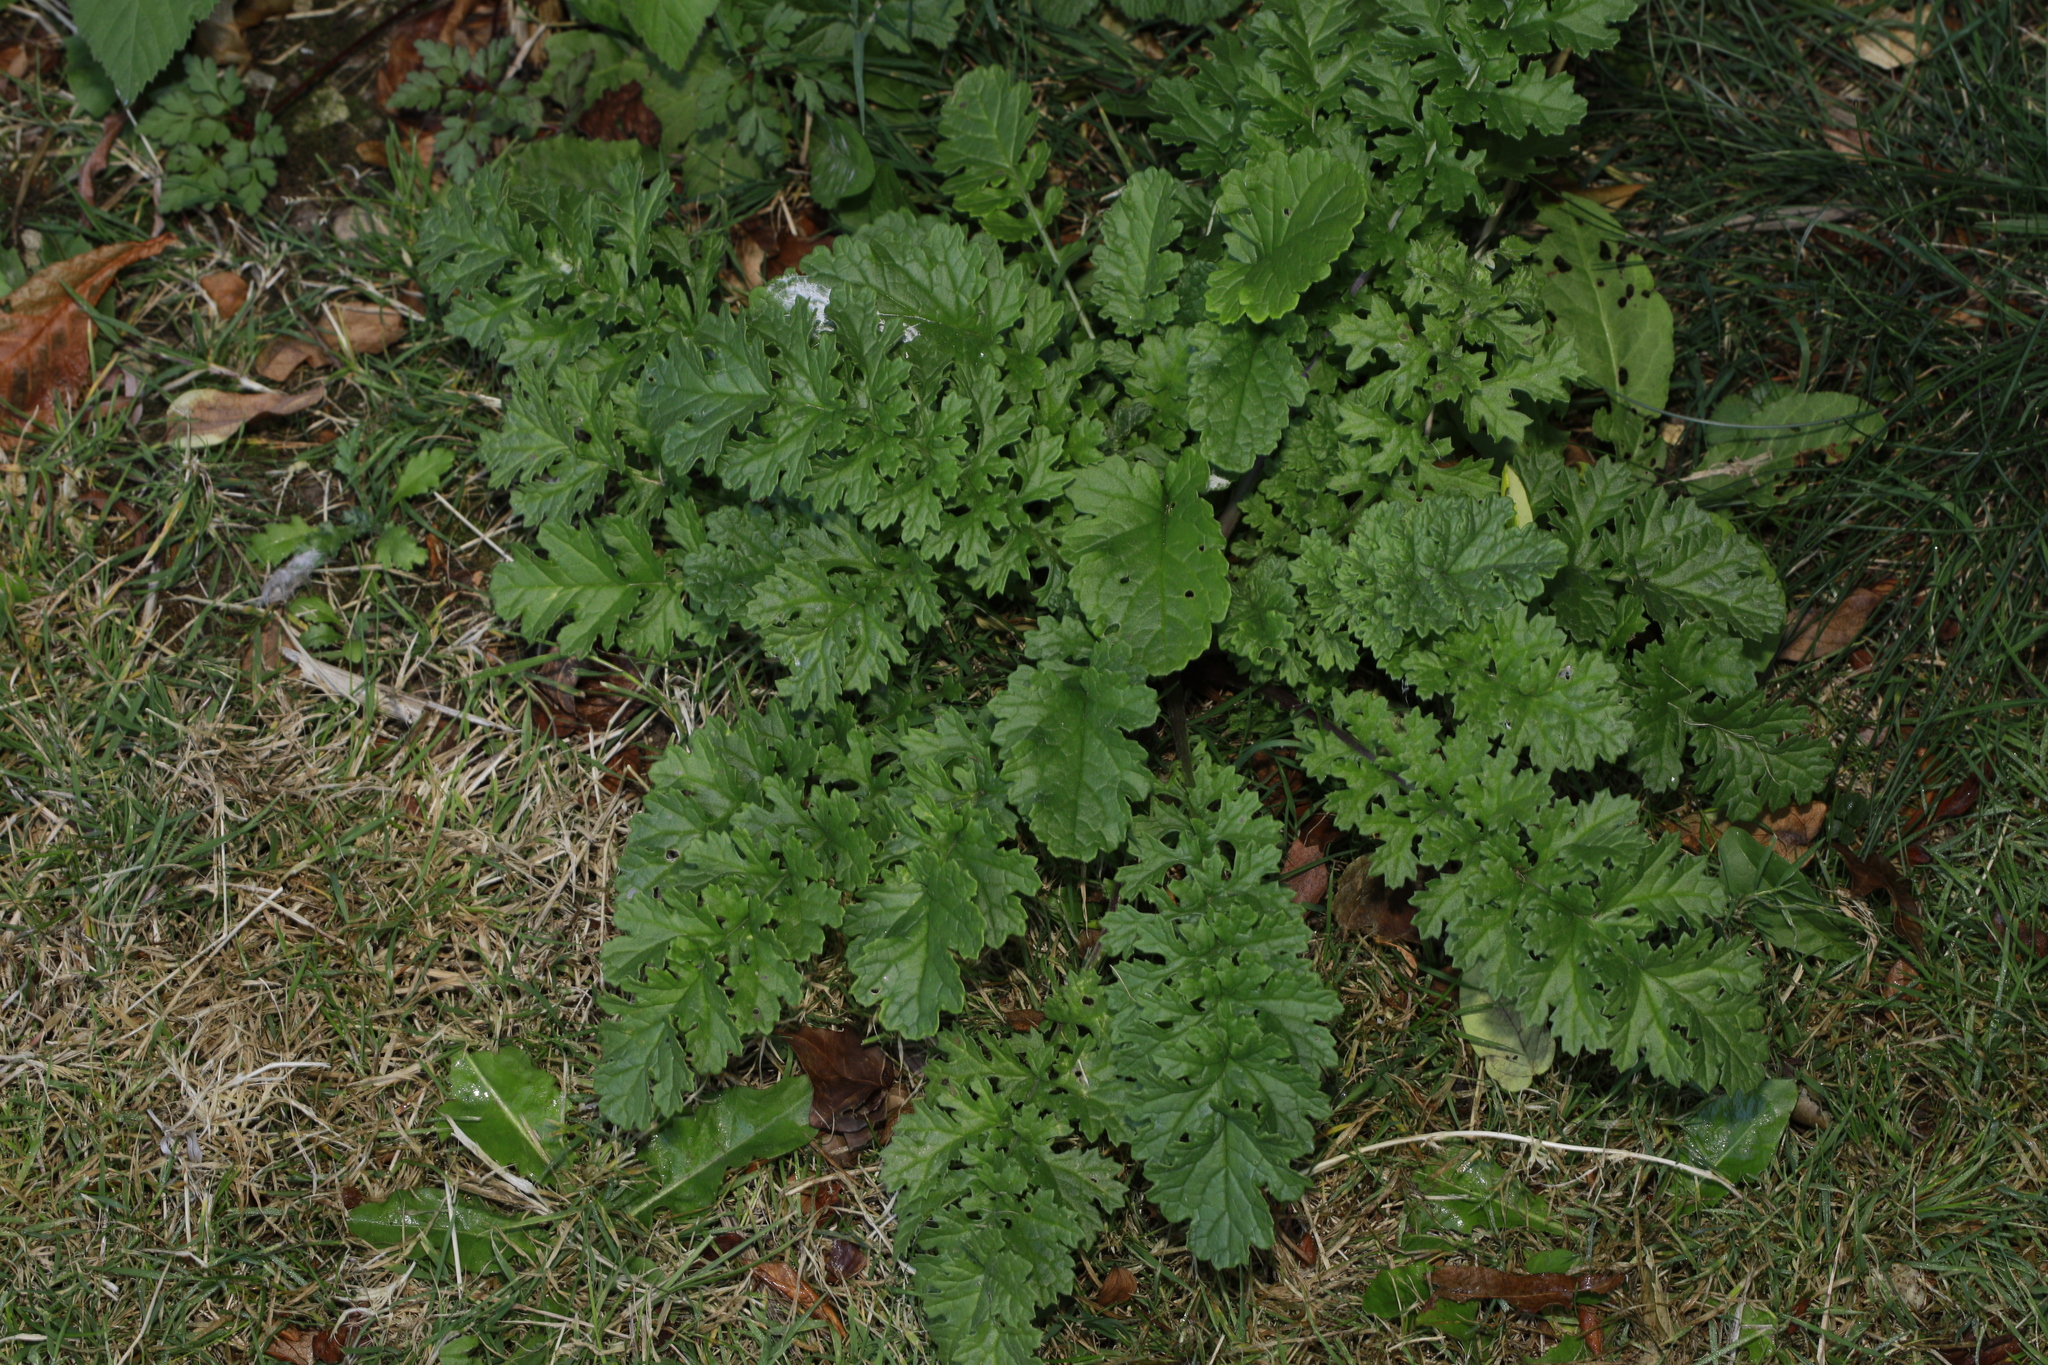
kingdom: Plantae
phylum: Tracheophyta
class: Magnoliopsida
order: Asterales
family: Asteraceae
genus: Jacobaea
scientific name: Jacobaea vulgaris
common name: Stinking willie
